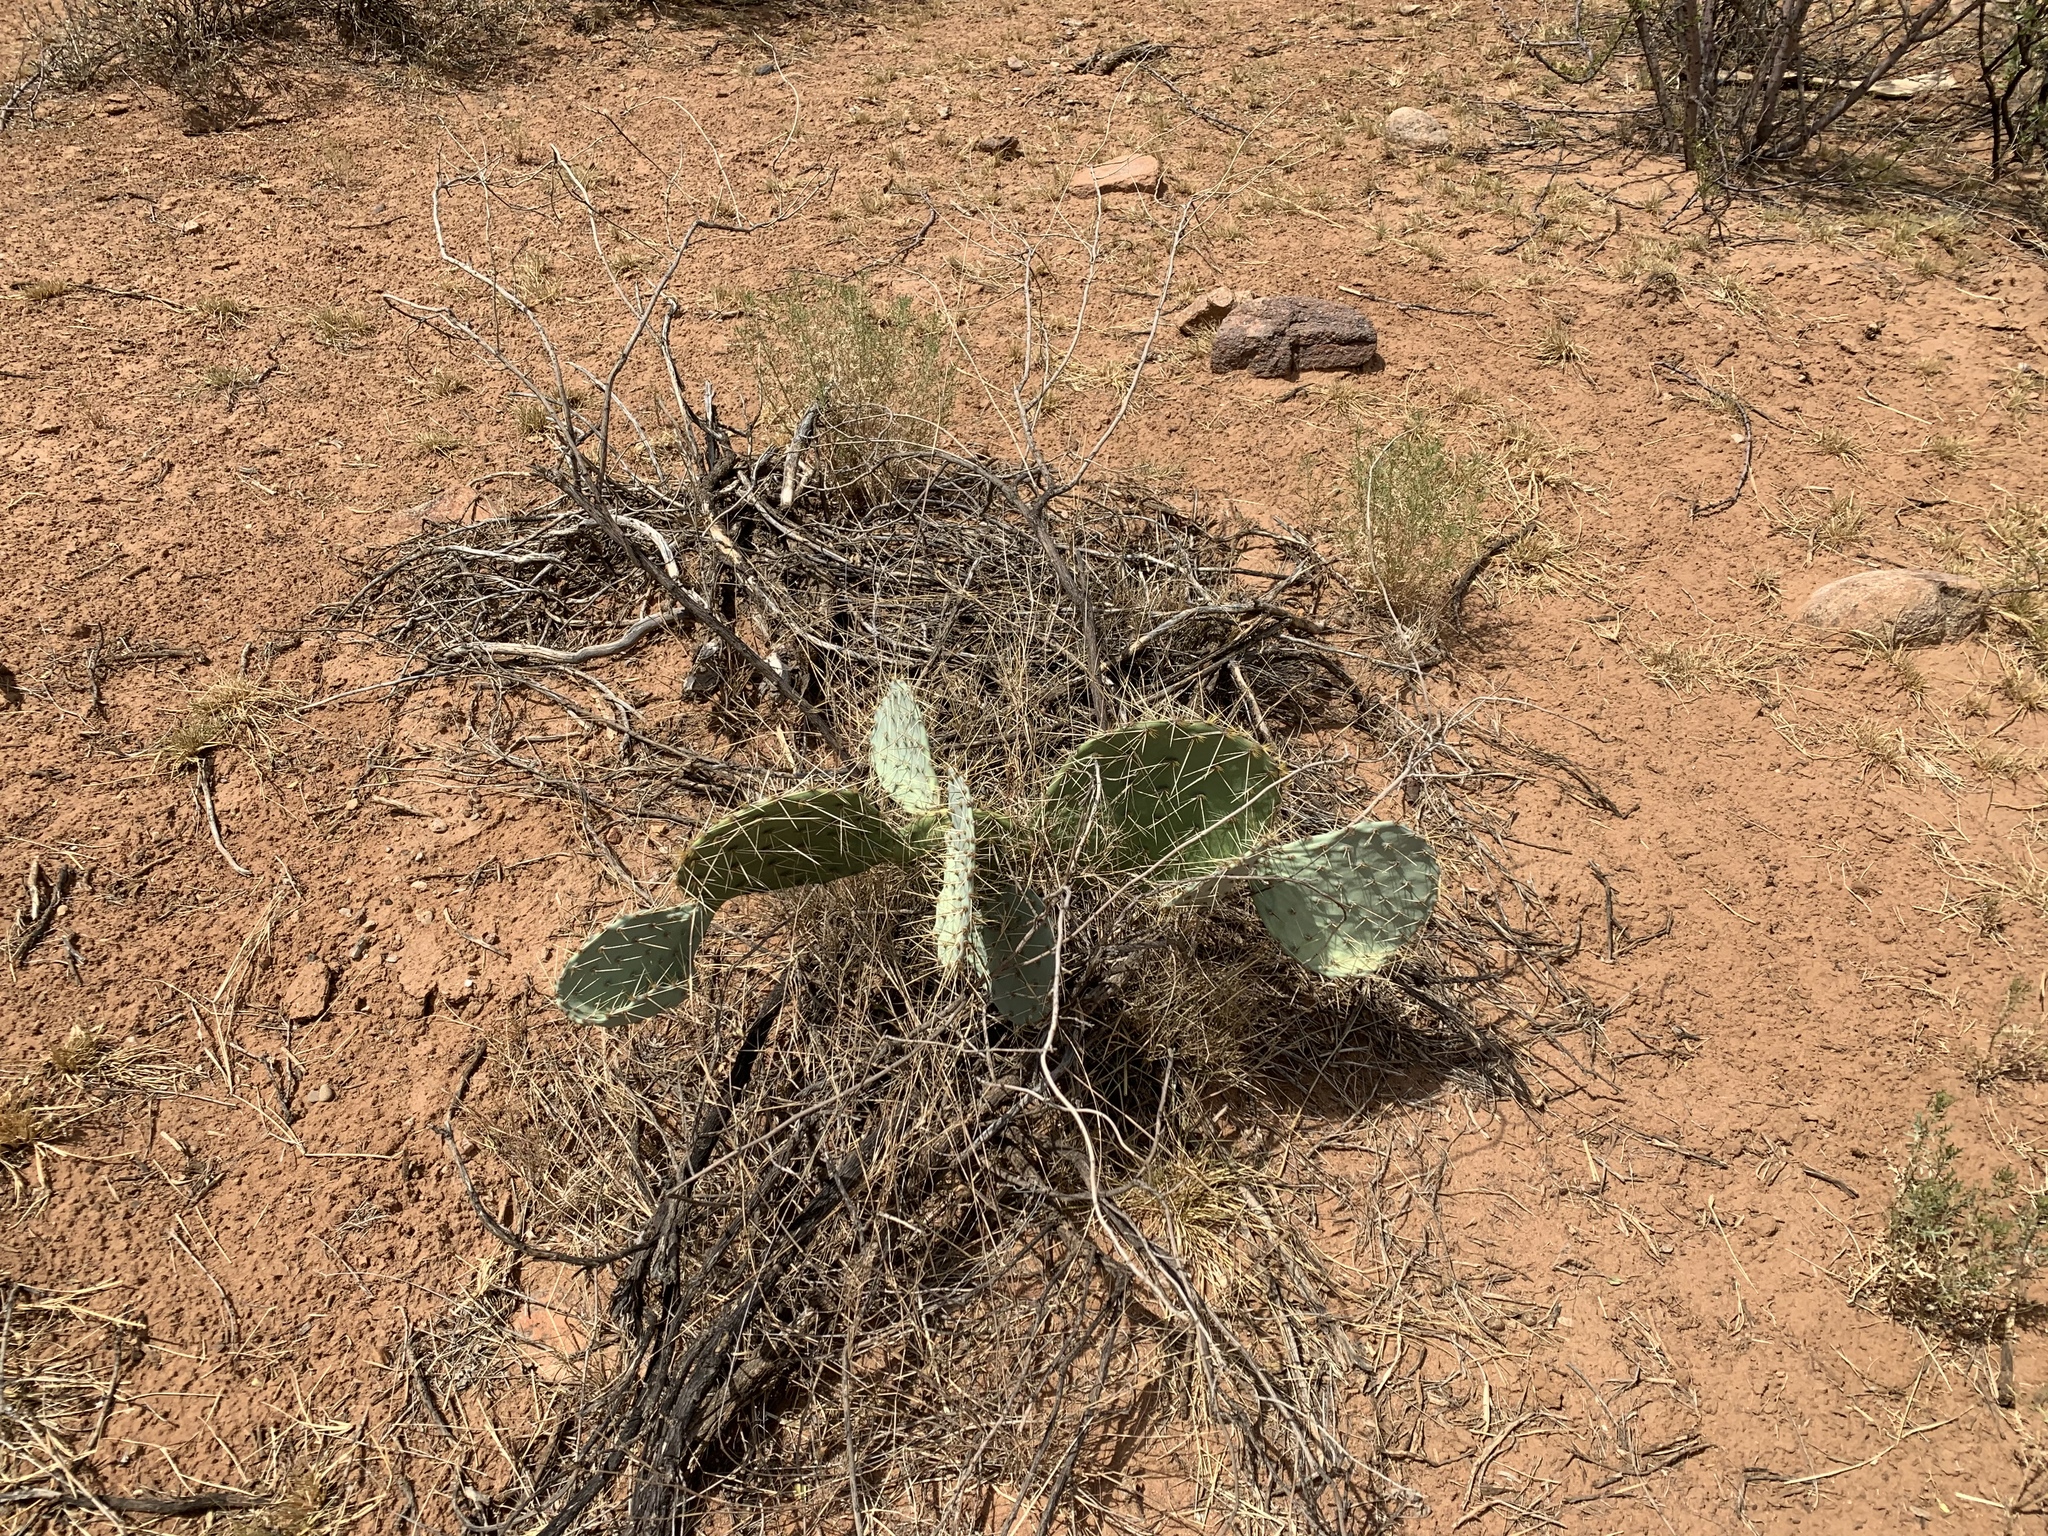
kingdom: Plantae
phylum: Tracheophyta
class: Magnoliopsida
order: Caryophyllales
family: Cactaceae
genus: Opuntia
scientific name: Opuntia engelmannii
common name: Cactus-apple
